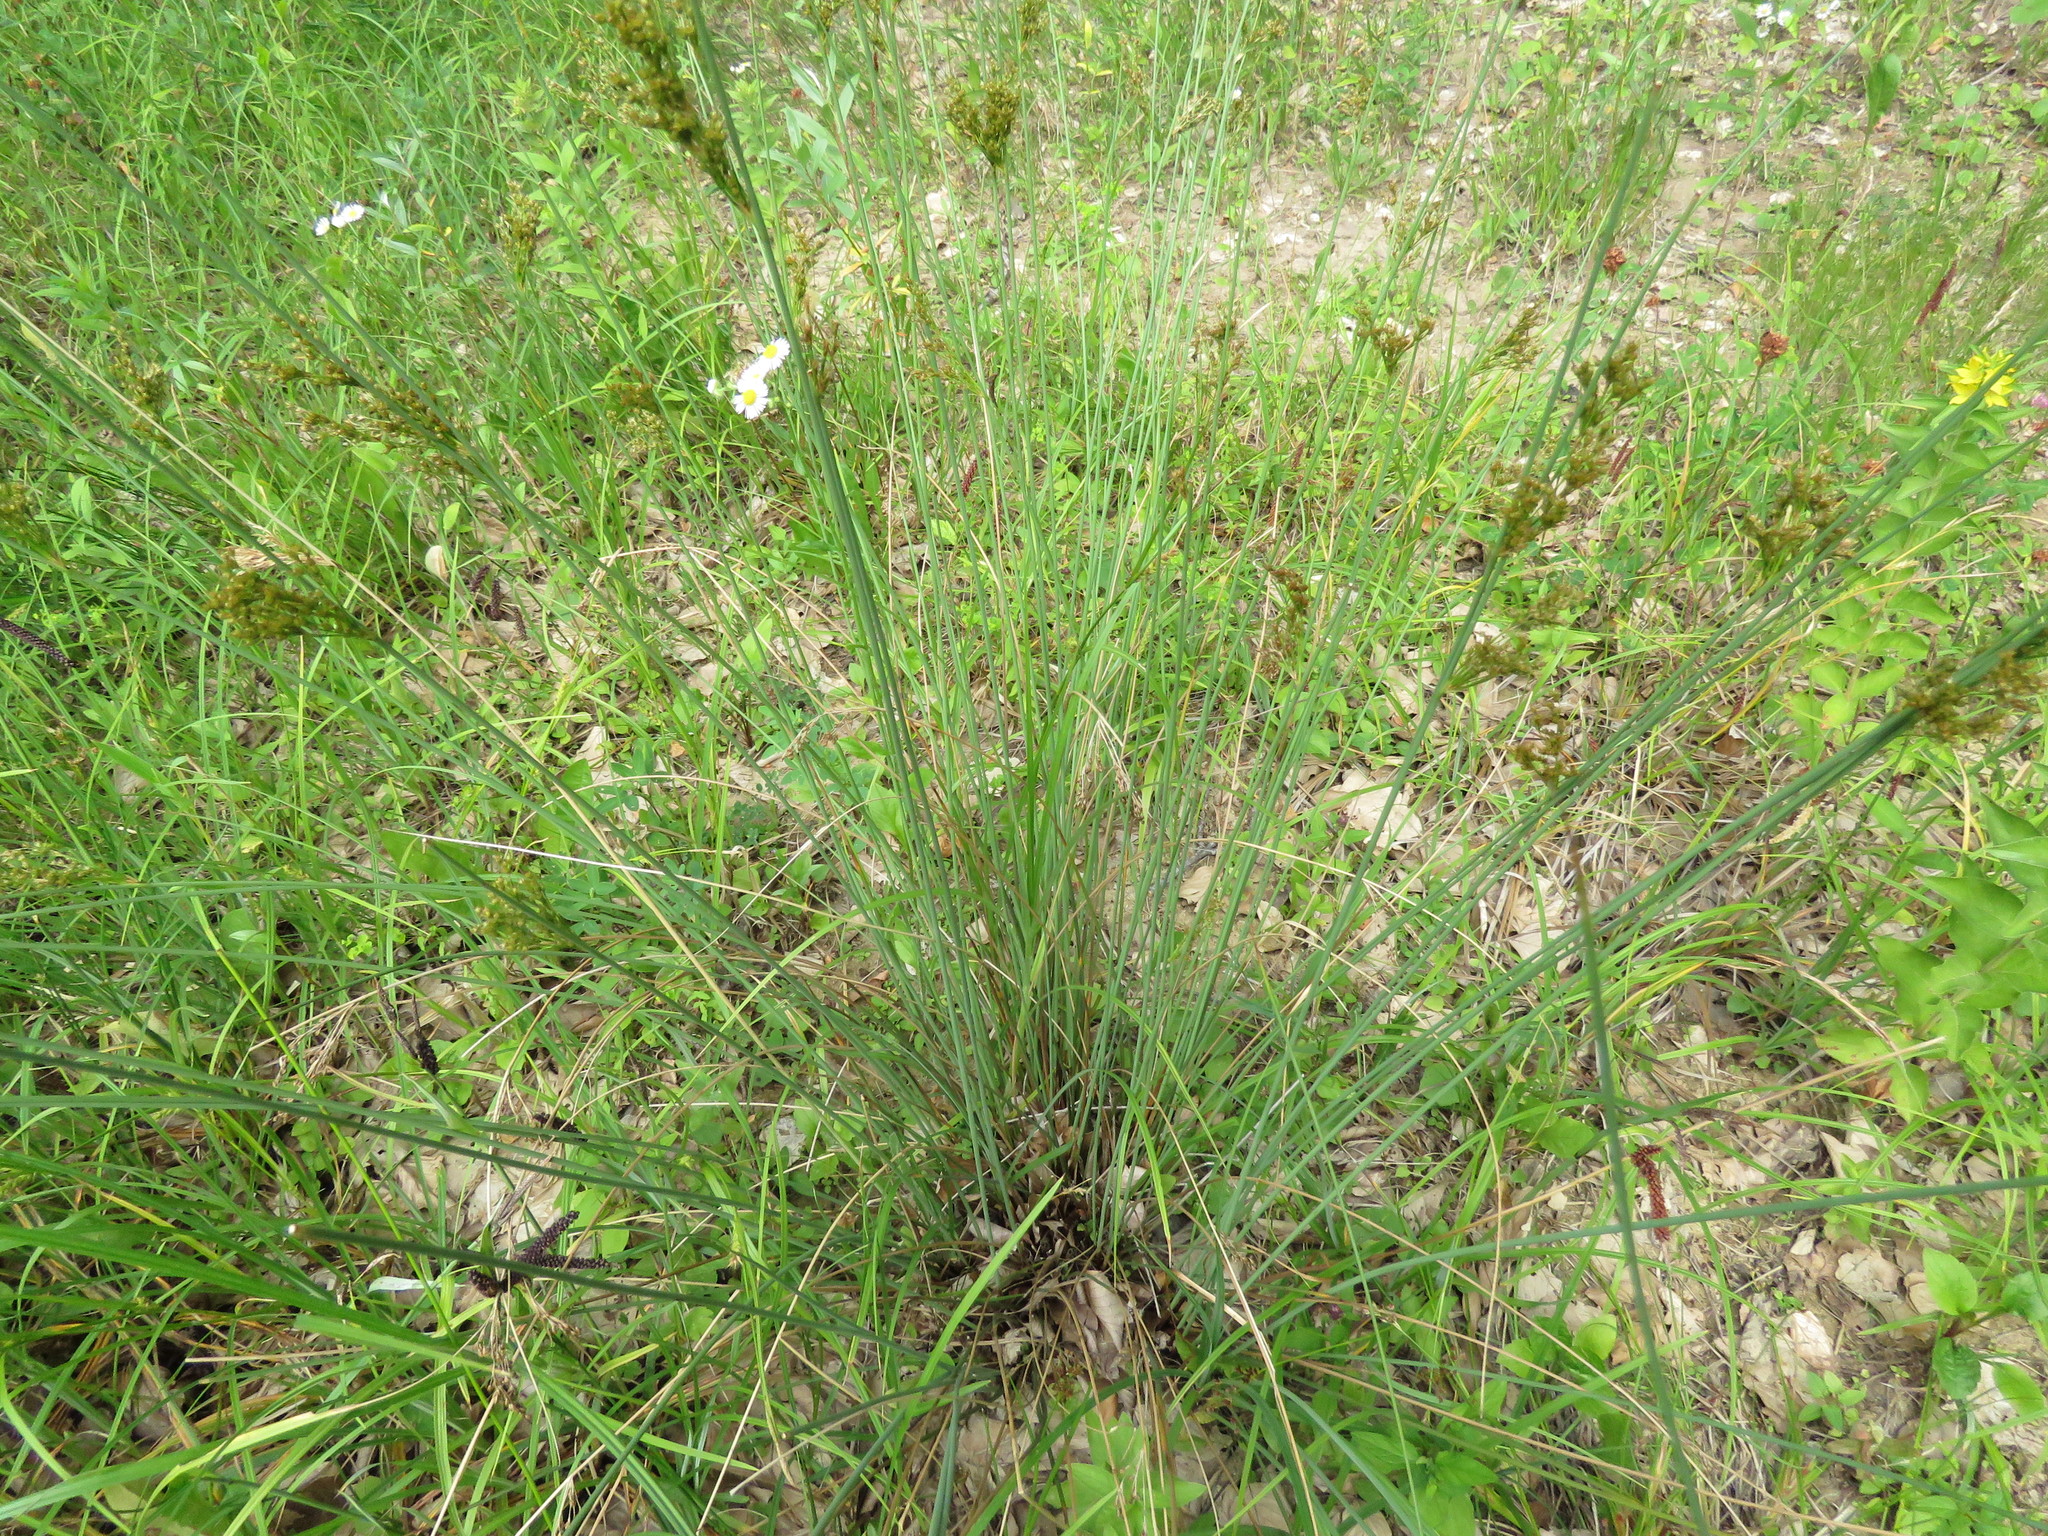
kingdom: Plantae
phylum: Tracheophyta
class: Liliopsida
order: Poales
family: Juncaceae
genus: Juncus
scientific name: Juncus inflexus
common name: Hard rush
